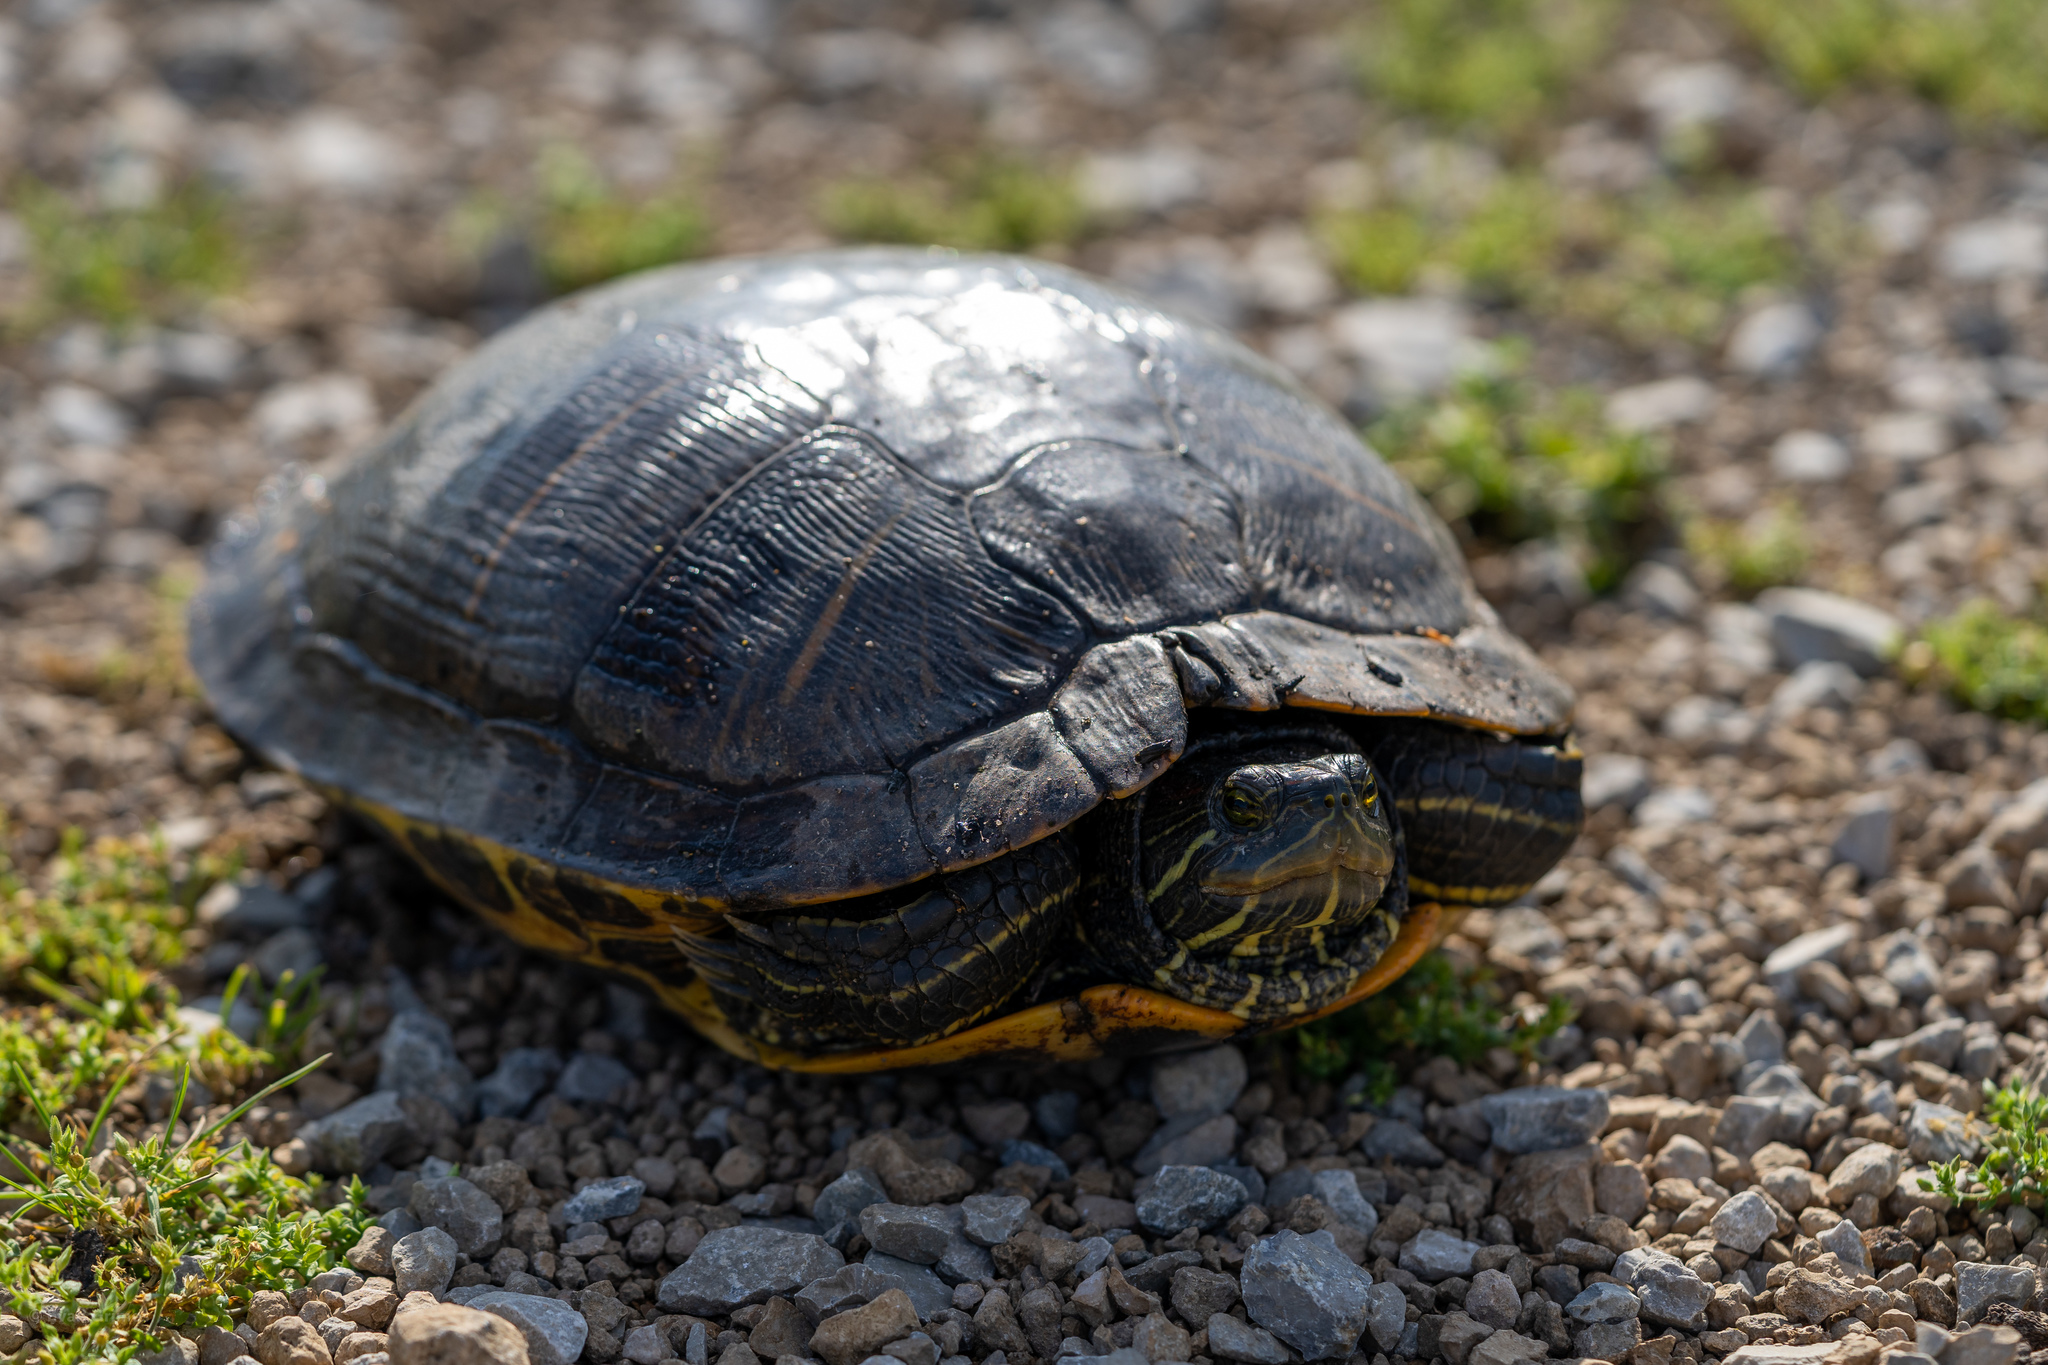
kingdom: Animalia
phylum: Chordata
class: Testudines
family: Emydidae
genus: Trachemys
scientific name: Trachemys scripta
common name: Slider
